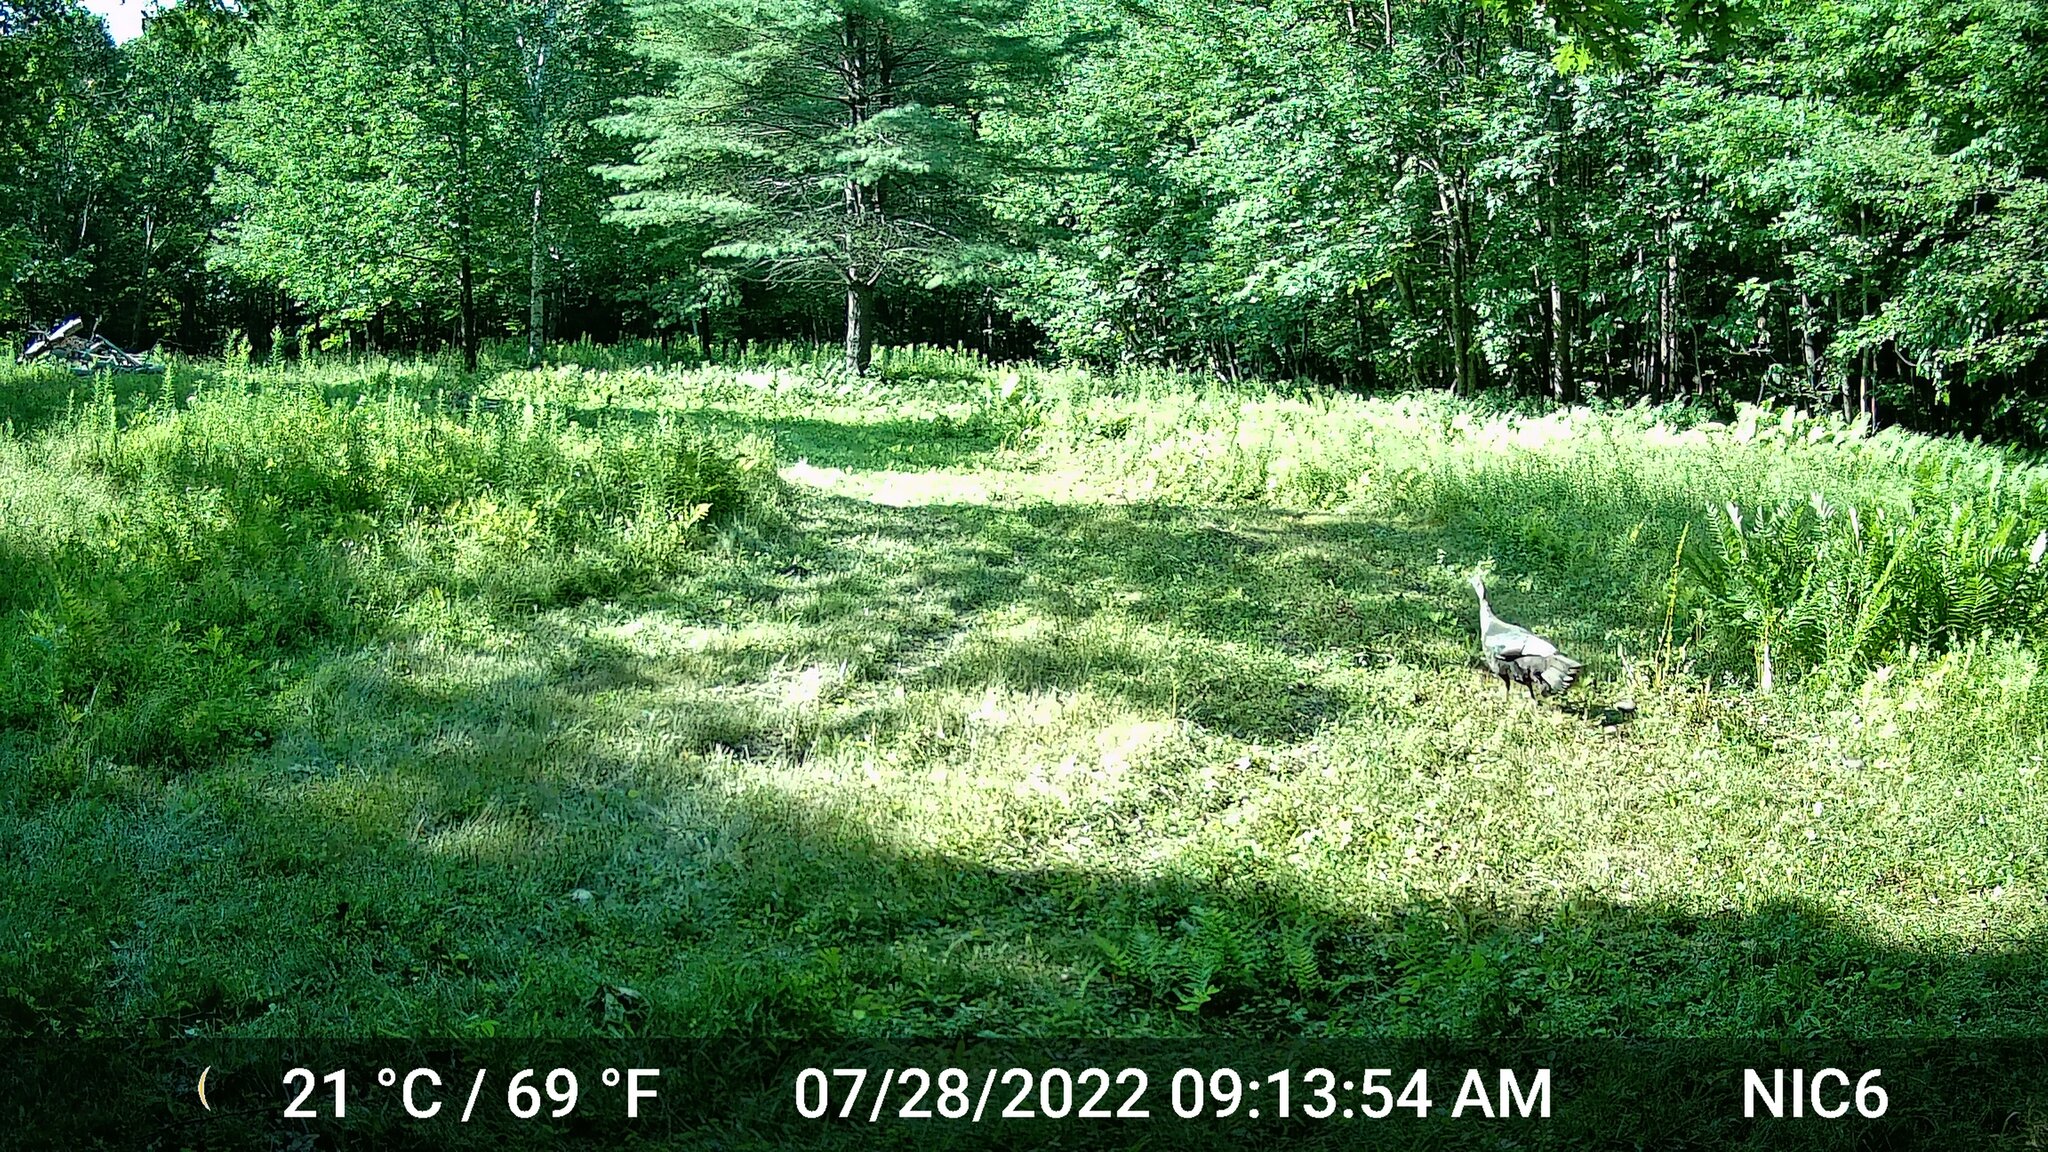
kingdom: Animalia
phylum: Chordata
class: Aves
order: Galliformes
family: Phasianidae
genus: Meleagris
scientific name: Meleagris gallopavo
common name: Wild turkey
